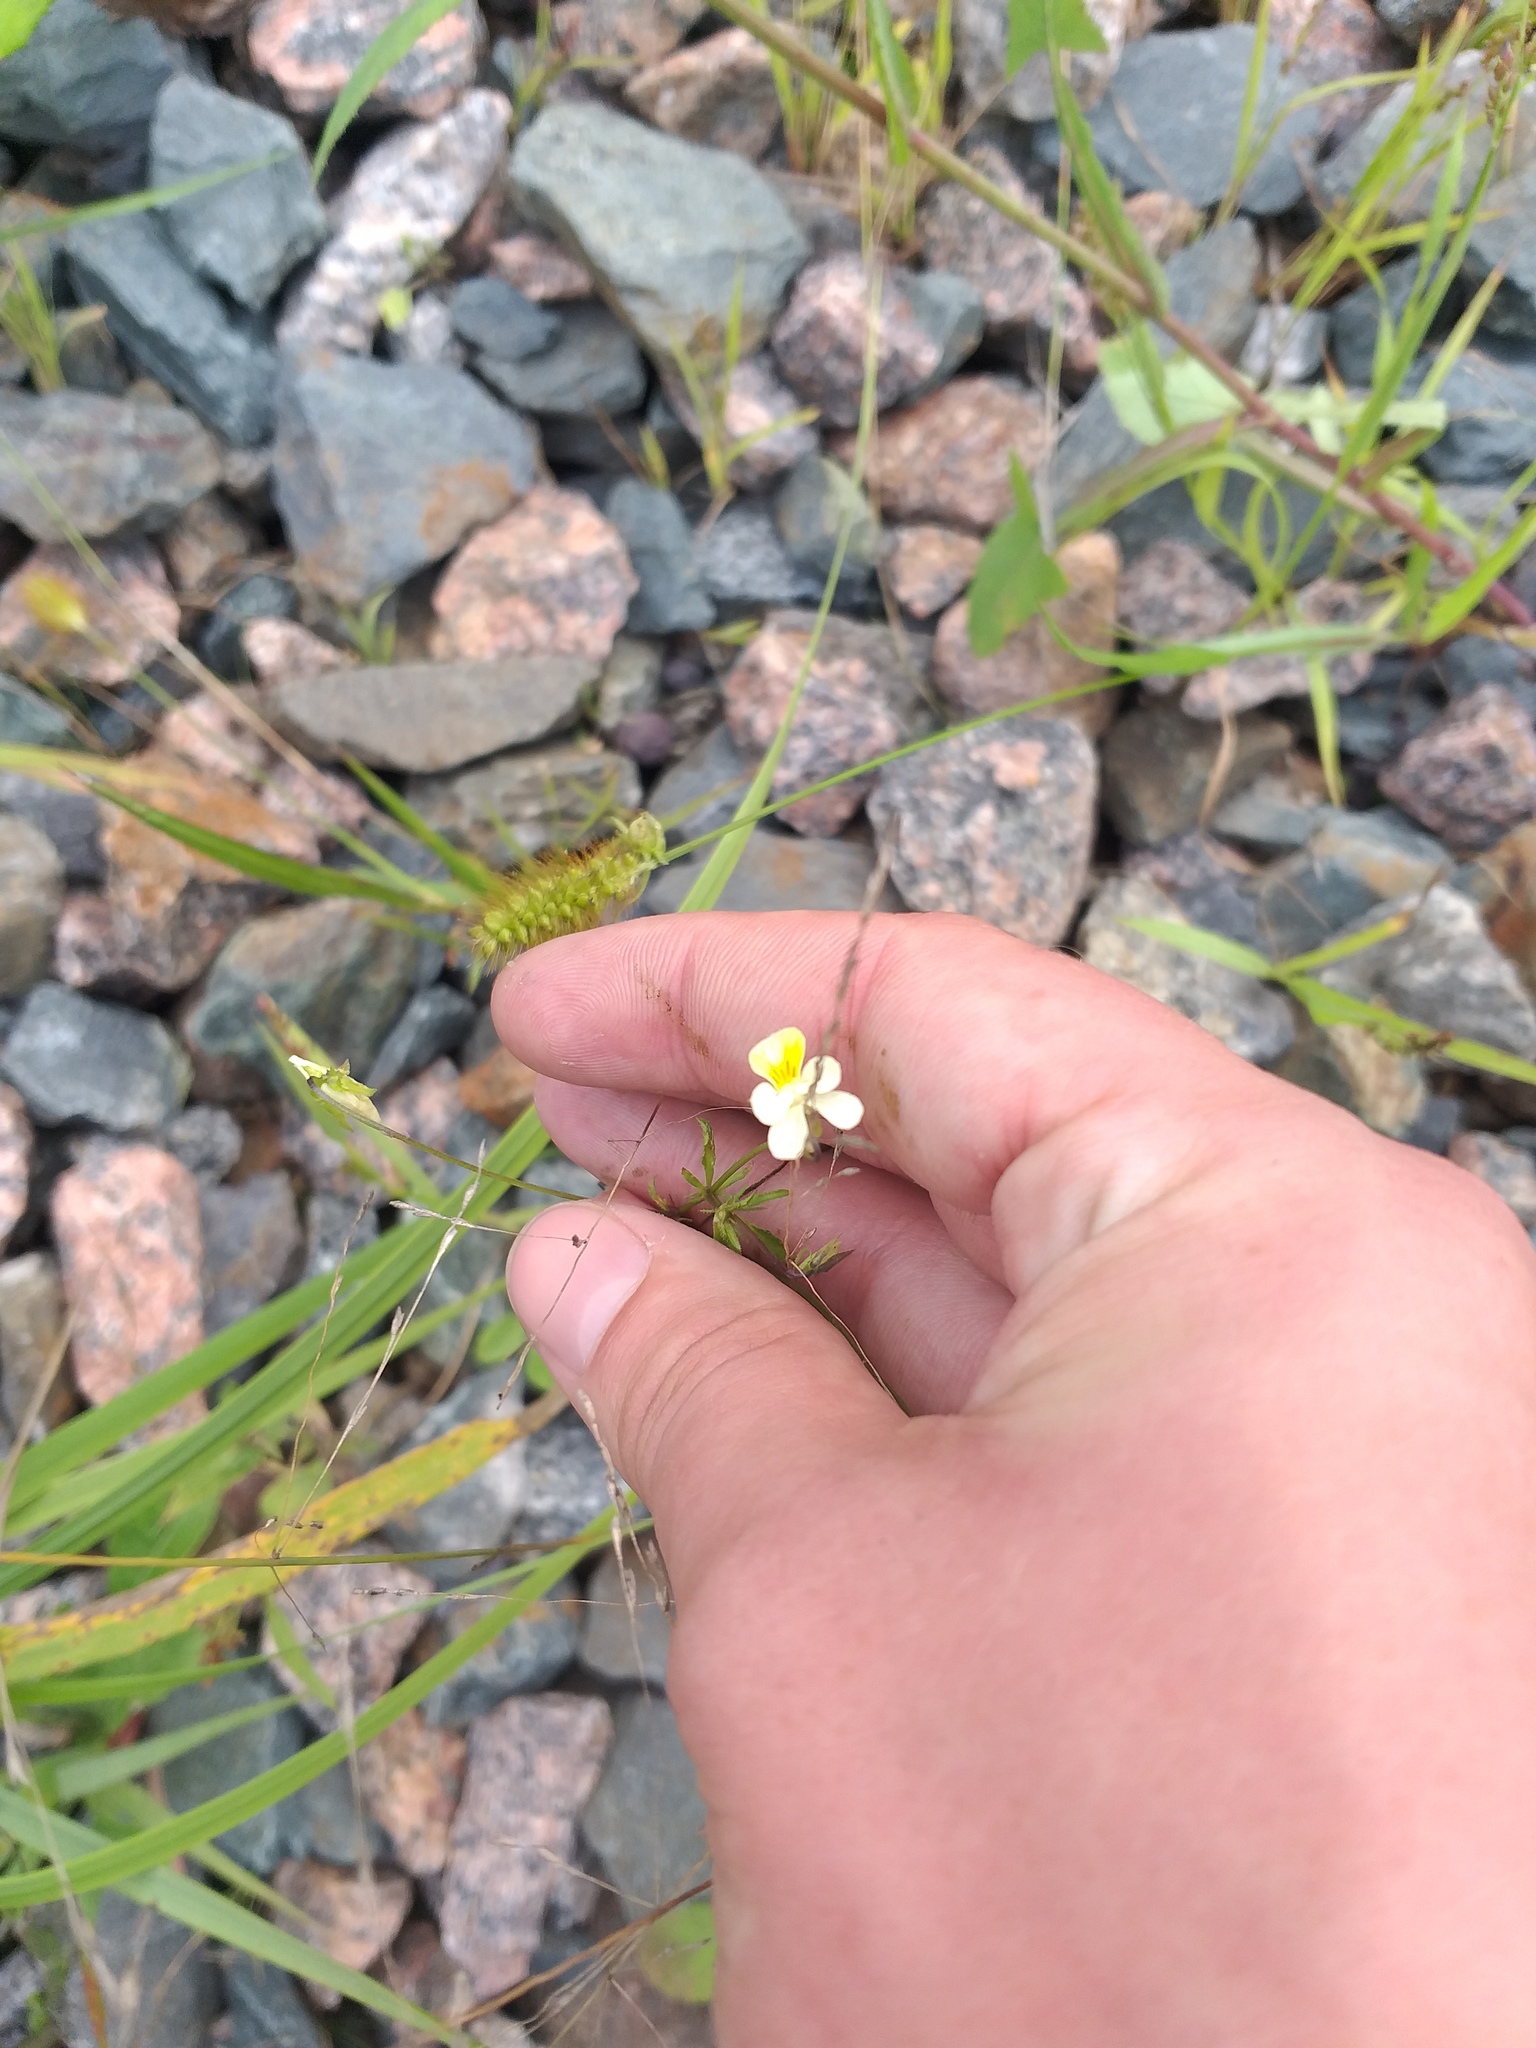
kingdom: Plantae
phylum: Tracheophyta
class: Magnoliopsida
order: Malpighiales
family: Violaceae
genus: Viola
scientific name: Viola arvensis
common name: Field pansy
